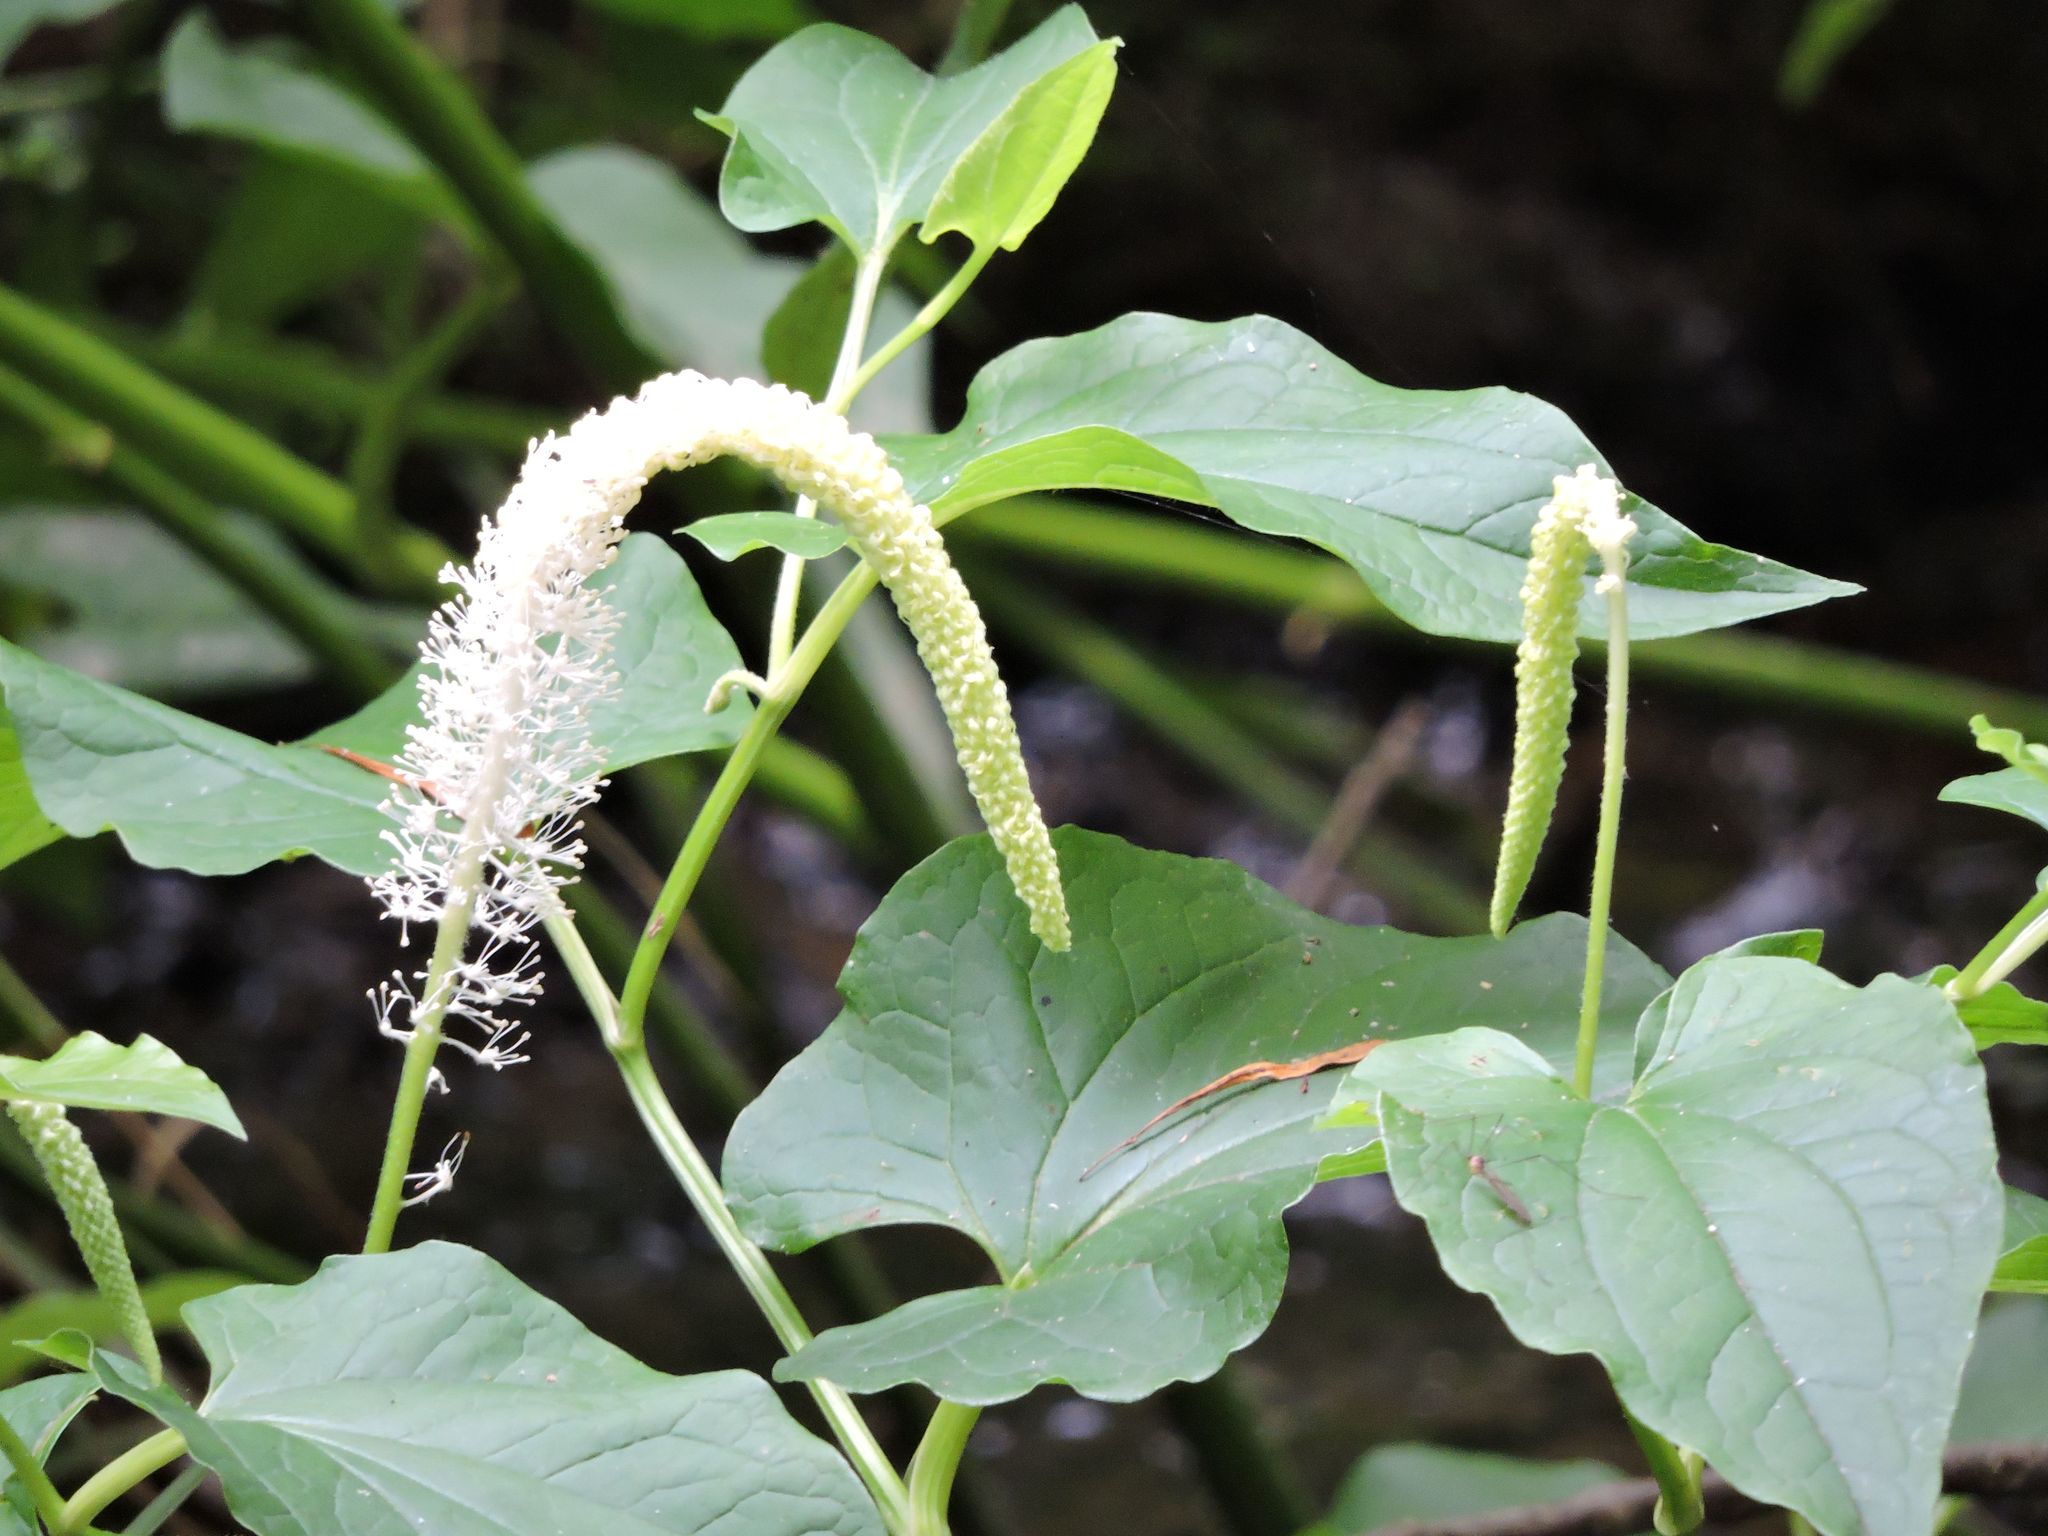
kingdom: Plantae
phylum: Tracheophyta
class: Magnoliopsida
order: Piperales
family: Saururaceae
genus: Saururus
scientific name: Saururus cernuus
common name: Lizard's-tail
